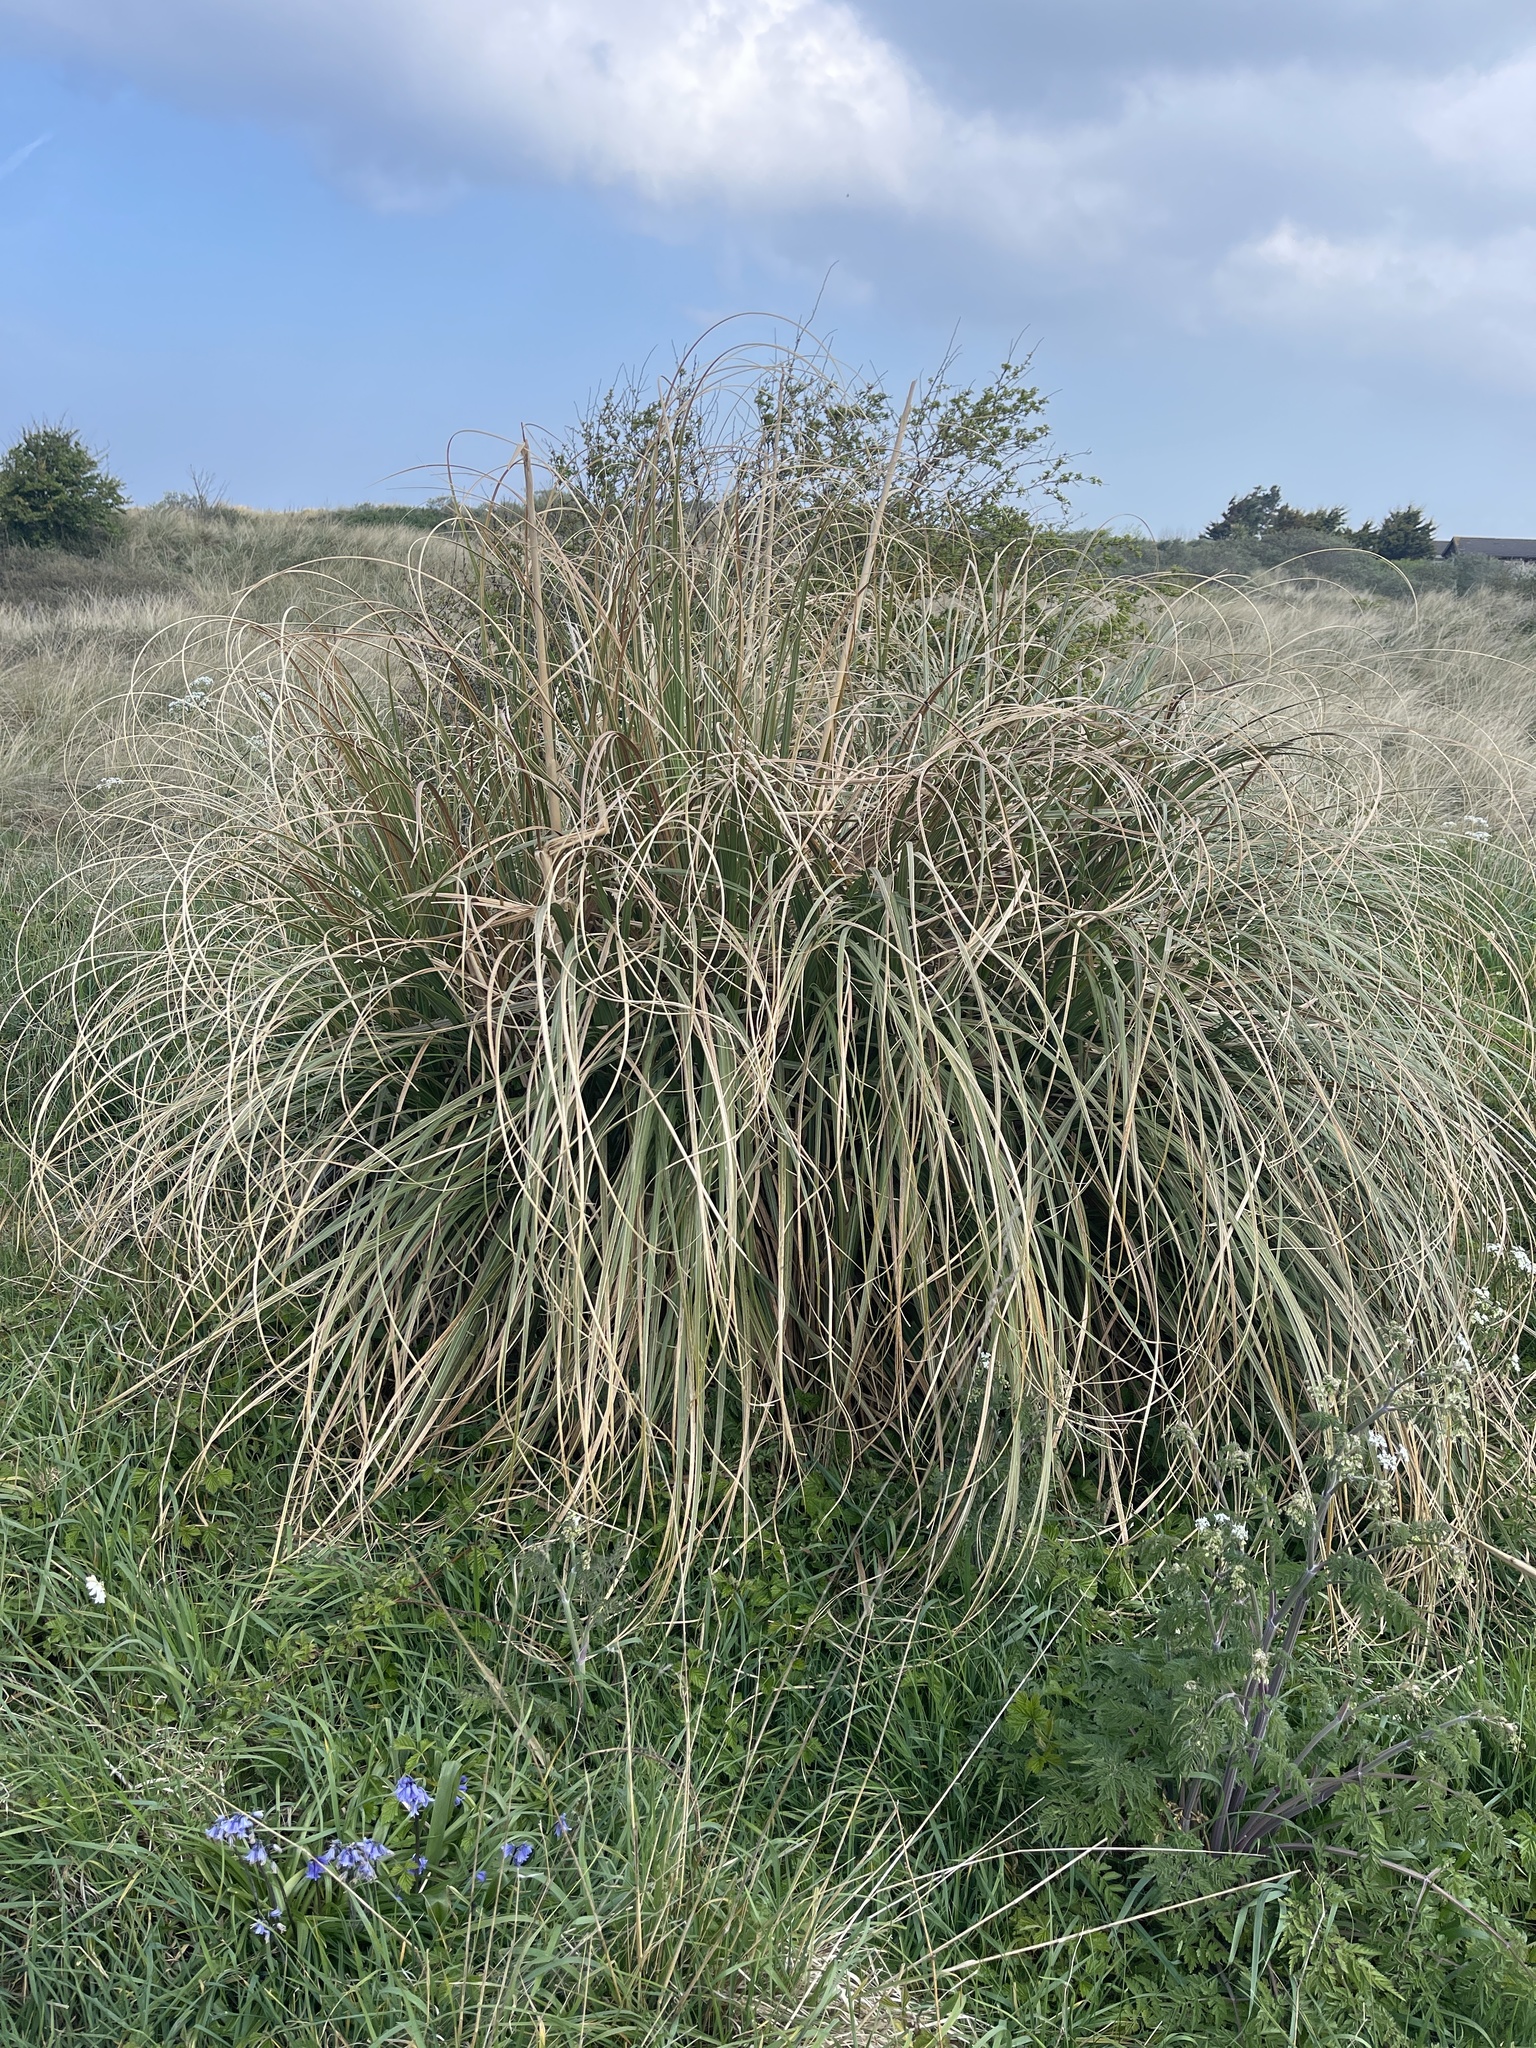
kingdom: Plantae
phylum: Tracheophyta
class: Liliopsida
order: Poales
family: Poaceae
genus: Cortaderia
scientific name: Cortaderia selloana
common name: Uruguayan pampas grass
